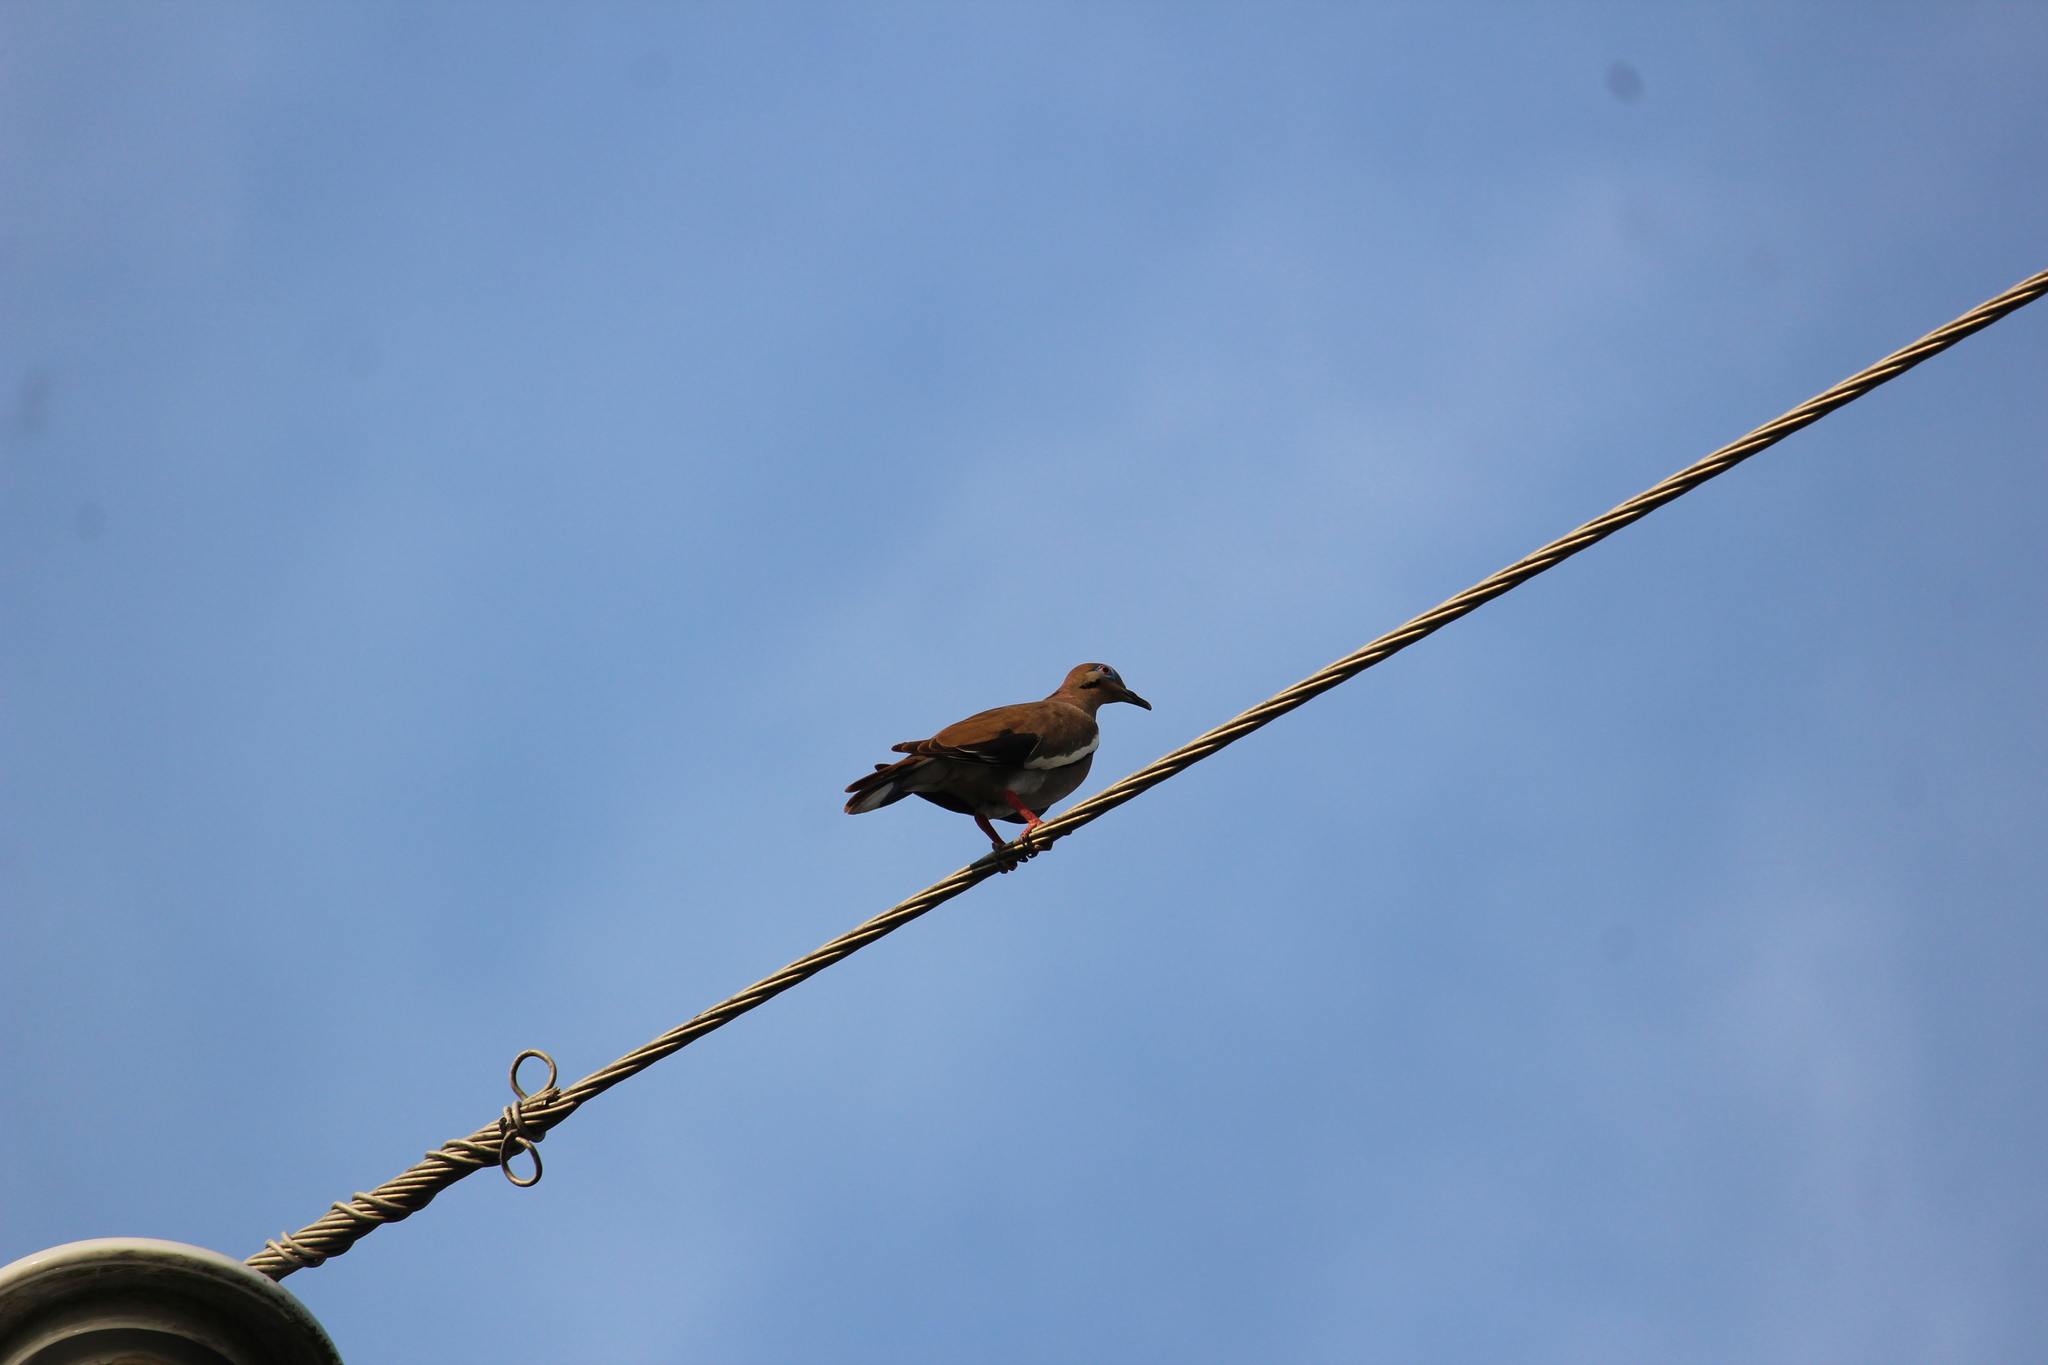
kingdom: Animalia
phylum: Chordata
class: Aves
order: Columbiformes
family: Columbidae
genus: Zenaida
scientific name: Zenaida asiatica
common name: White-winged dove
